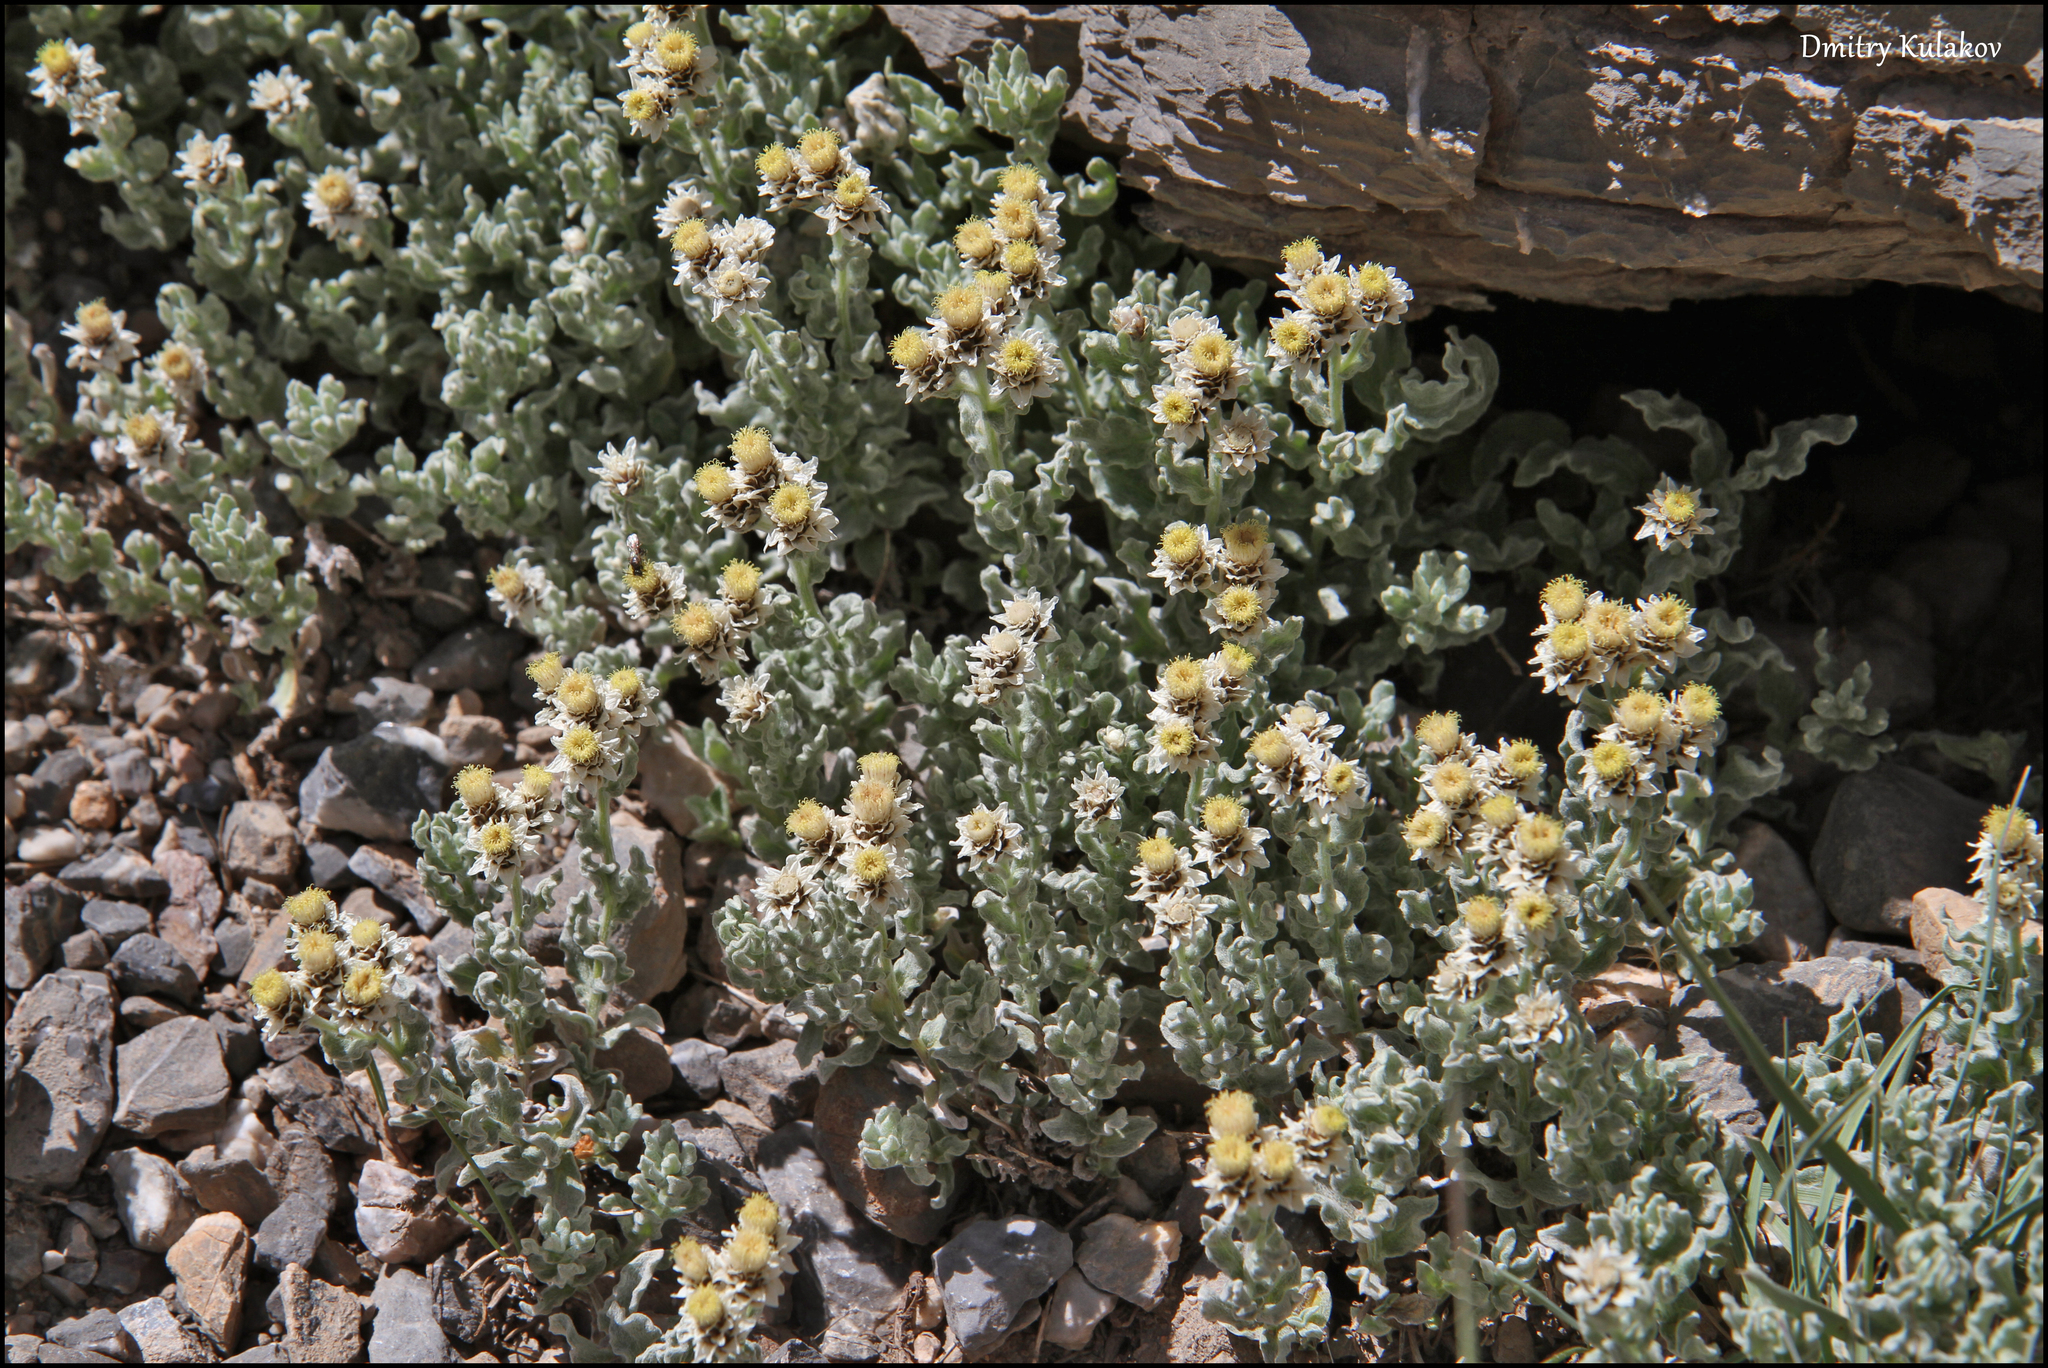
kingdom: Plantae
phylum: Tracheophyta
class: Magnoliopsida
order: Asterales
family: Asteraceae
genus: Anaphalis
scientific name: Anaphalis sarawschanica
